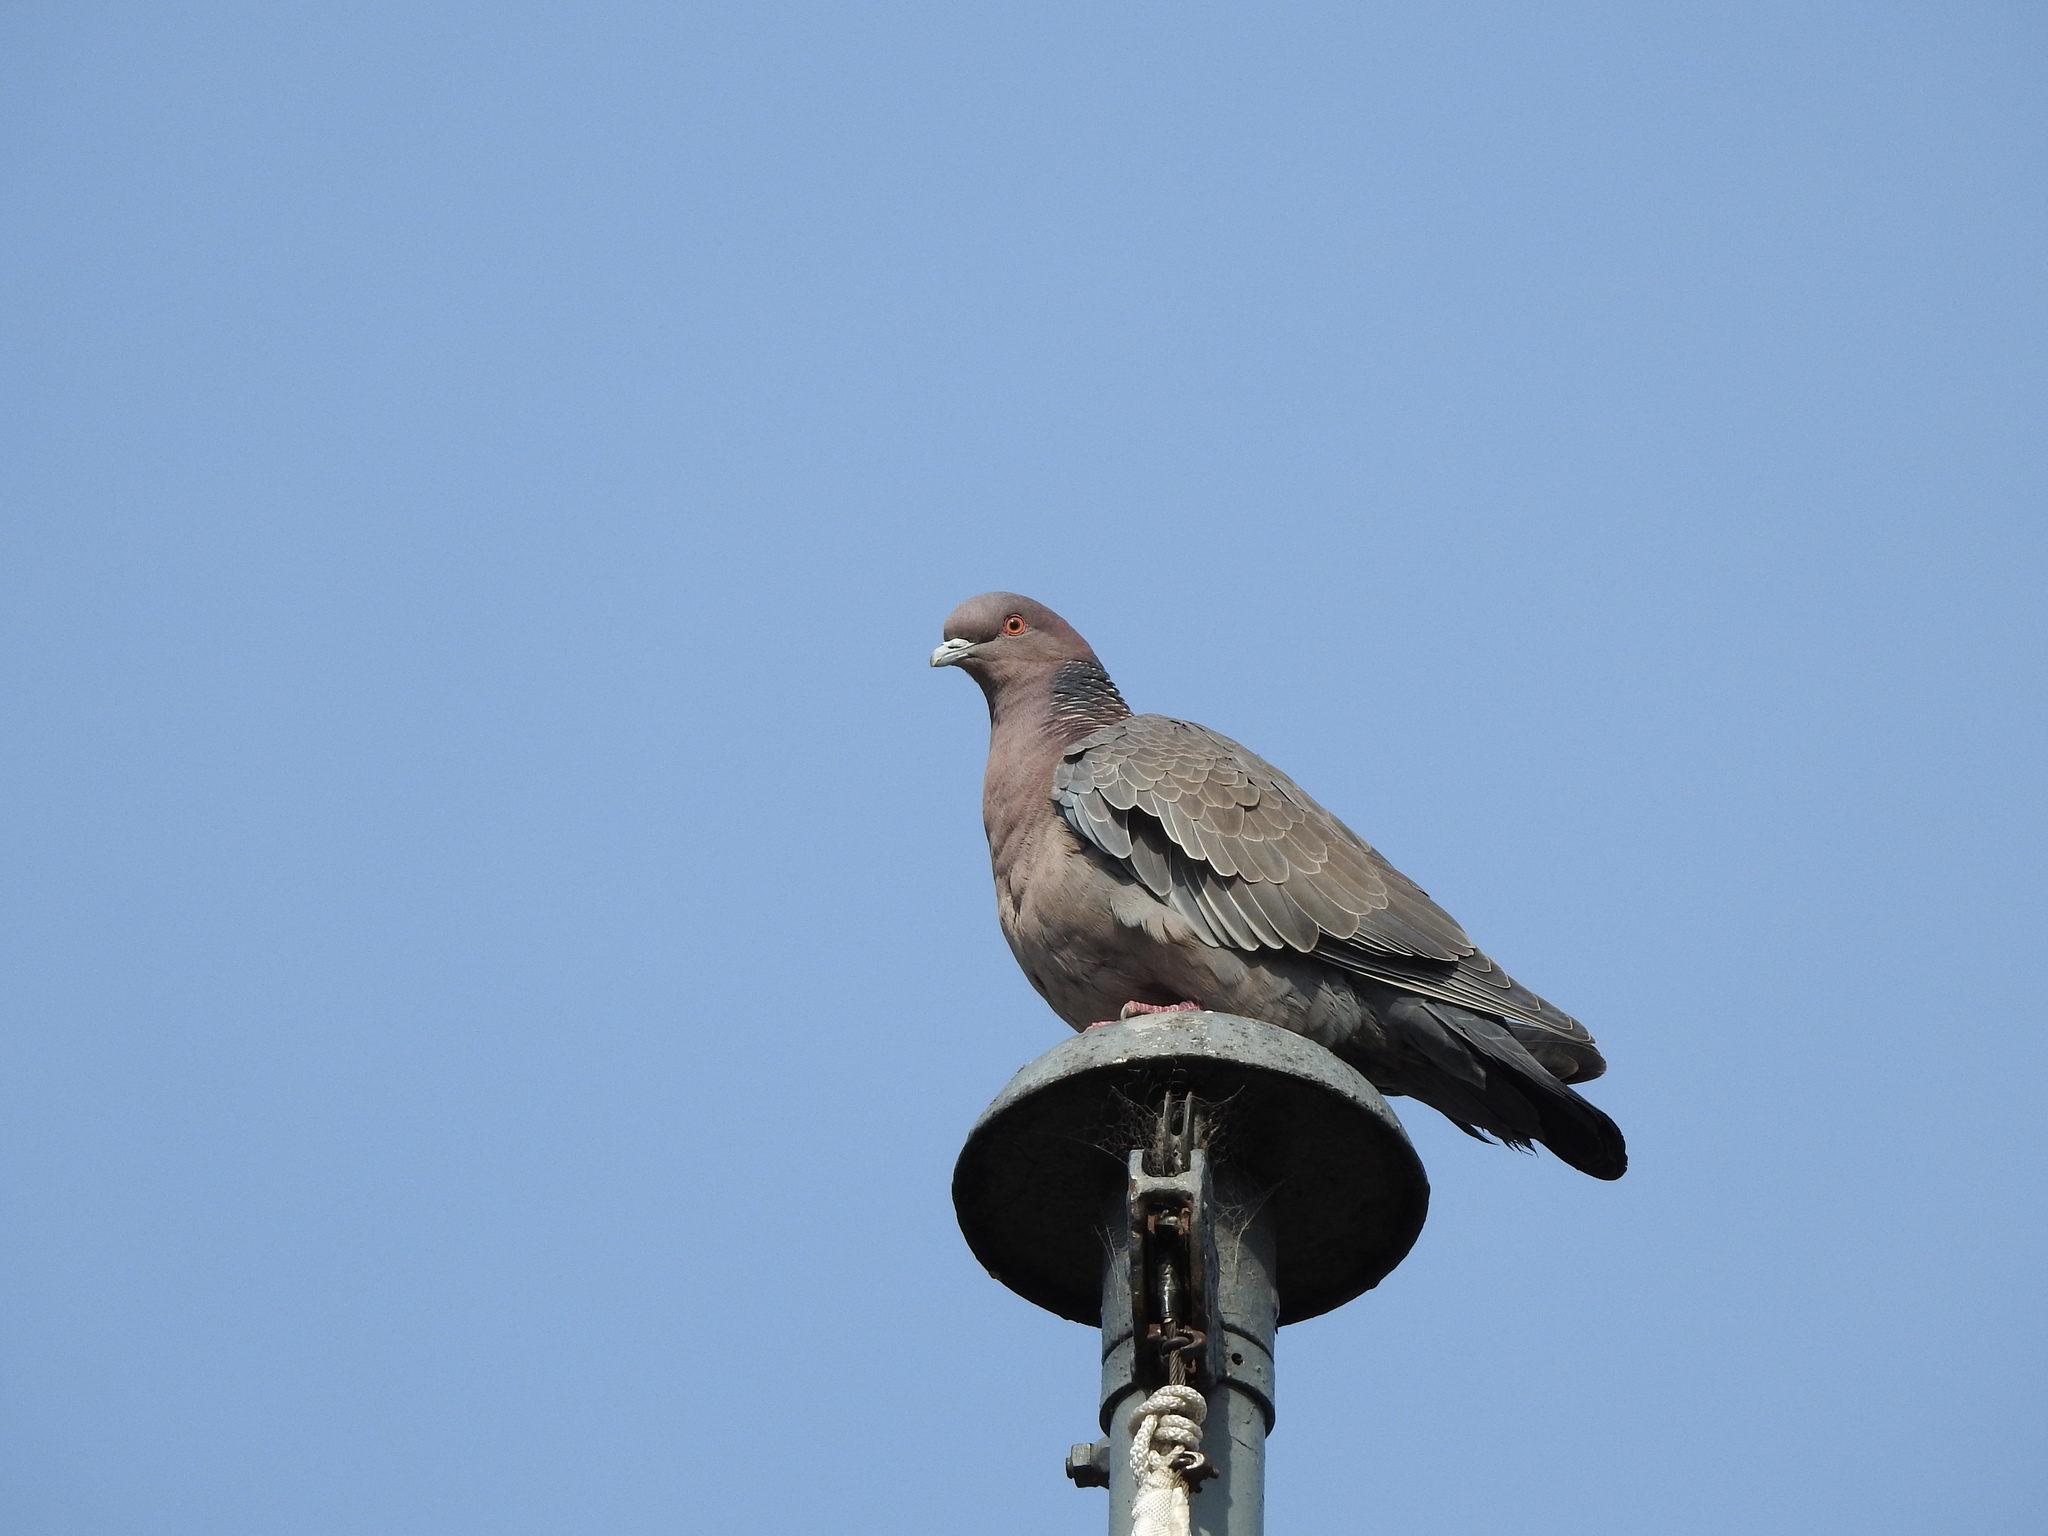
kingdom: Animalia
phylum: Chordata
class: Aves
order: Columbiformes
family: Columbidae
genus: Patagioenas
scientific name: Patagioenas picazuro
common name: Picazuro pigeon
